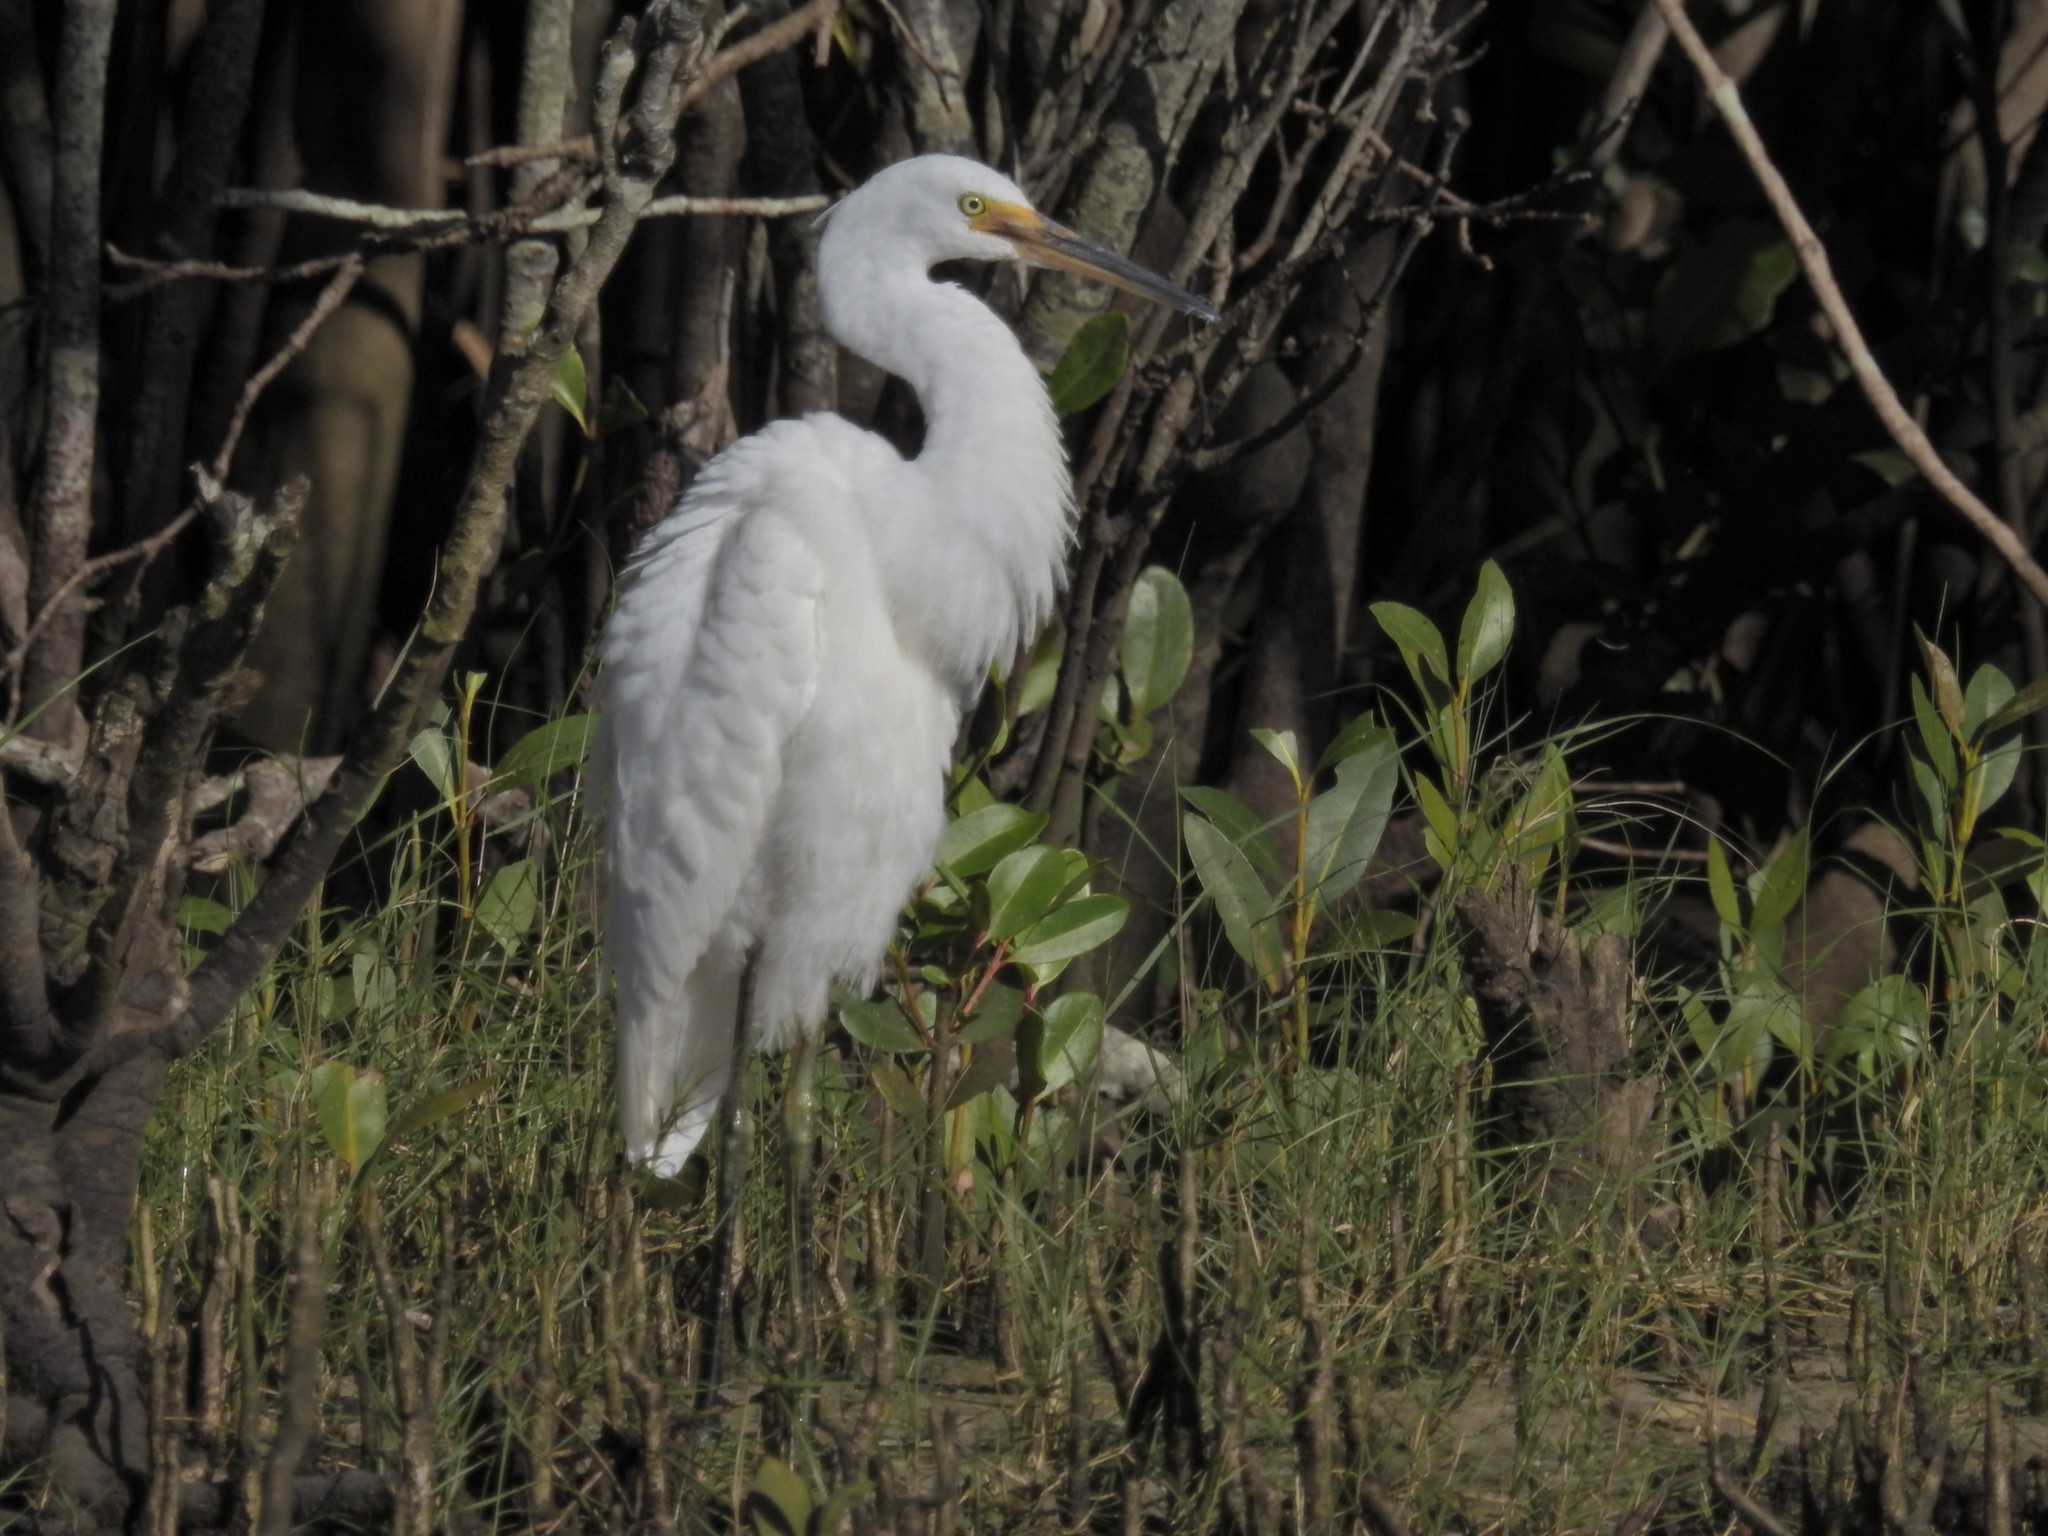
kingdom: Animalia
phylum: Chordata
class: Aves
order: Pelecaniformes
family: Ardeidae
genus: Egretta
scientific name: Egretta garzetta
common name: Little egret
